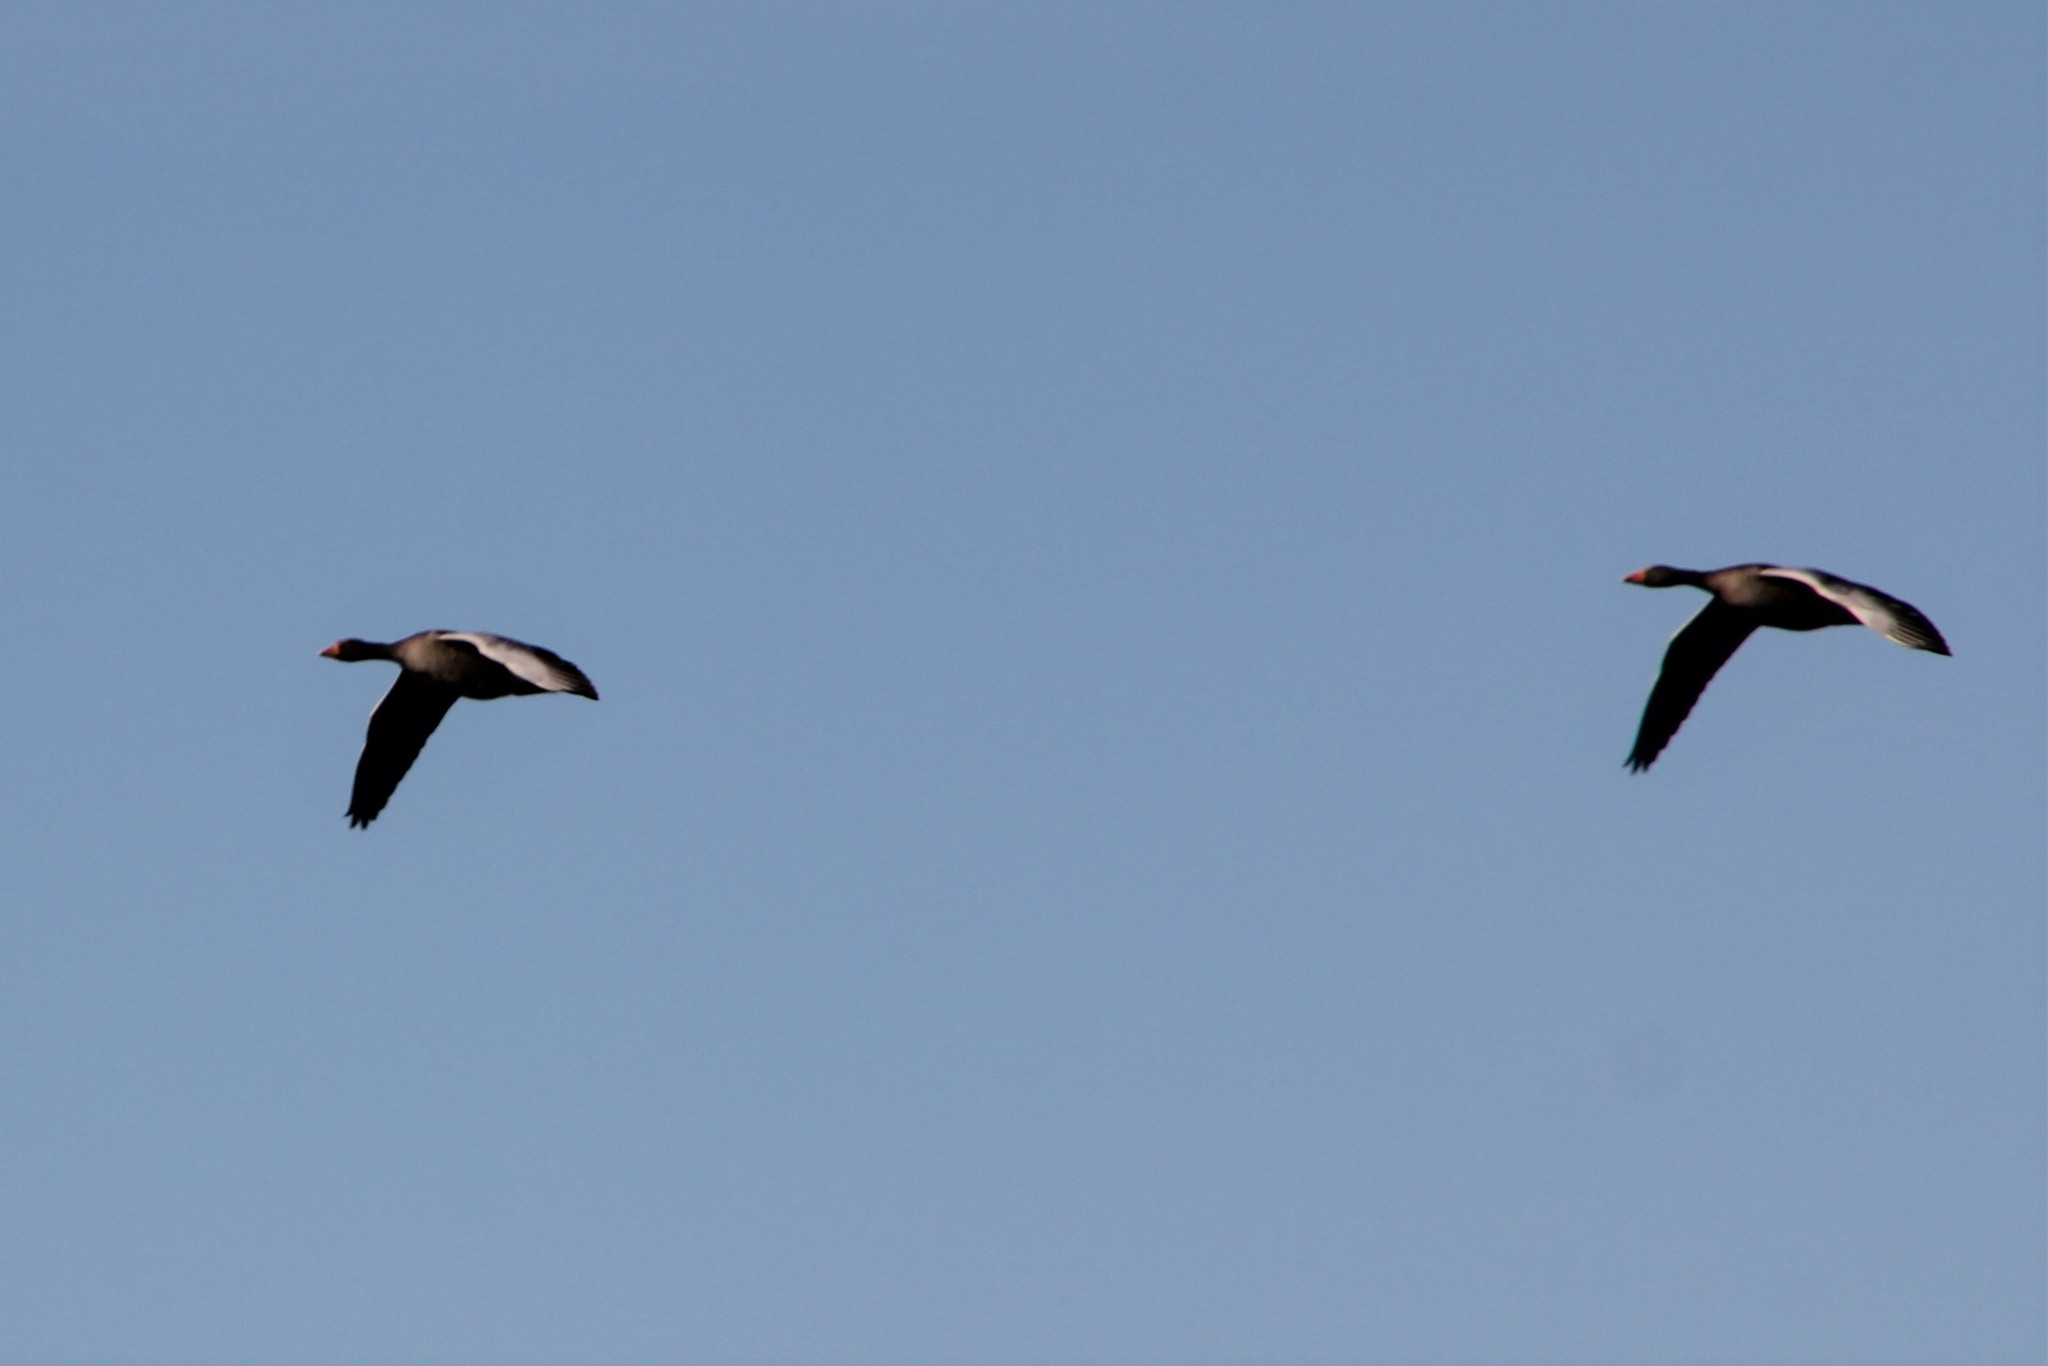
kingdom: Animalia
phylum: Chordata
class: Aves
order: Anseriformes
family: Anatidae
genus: Anser
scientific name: Anser anser
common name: Greylag goose
